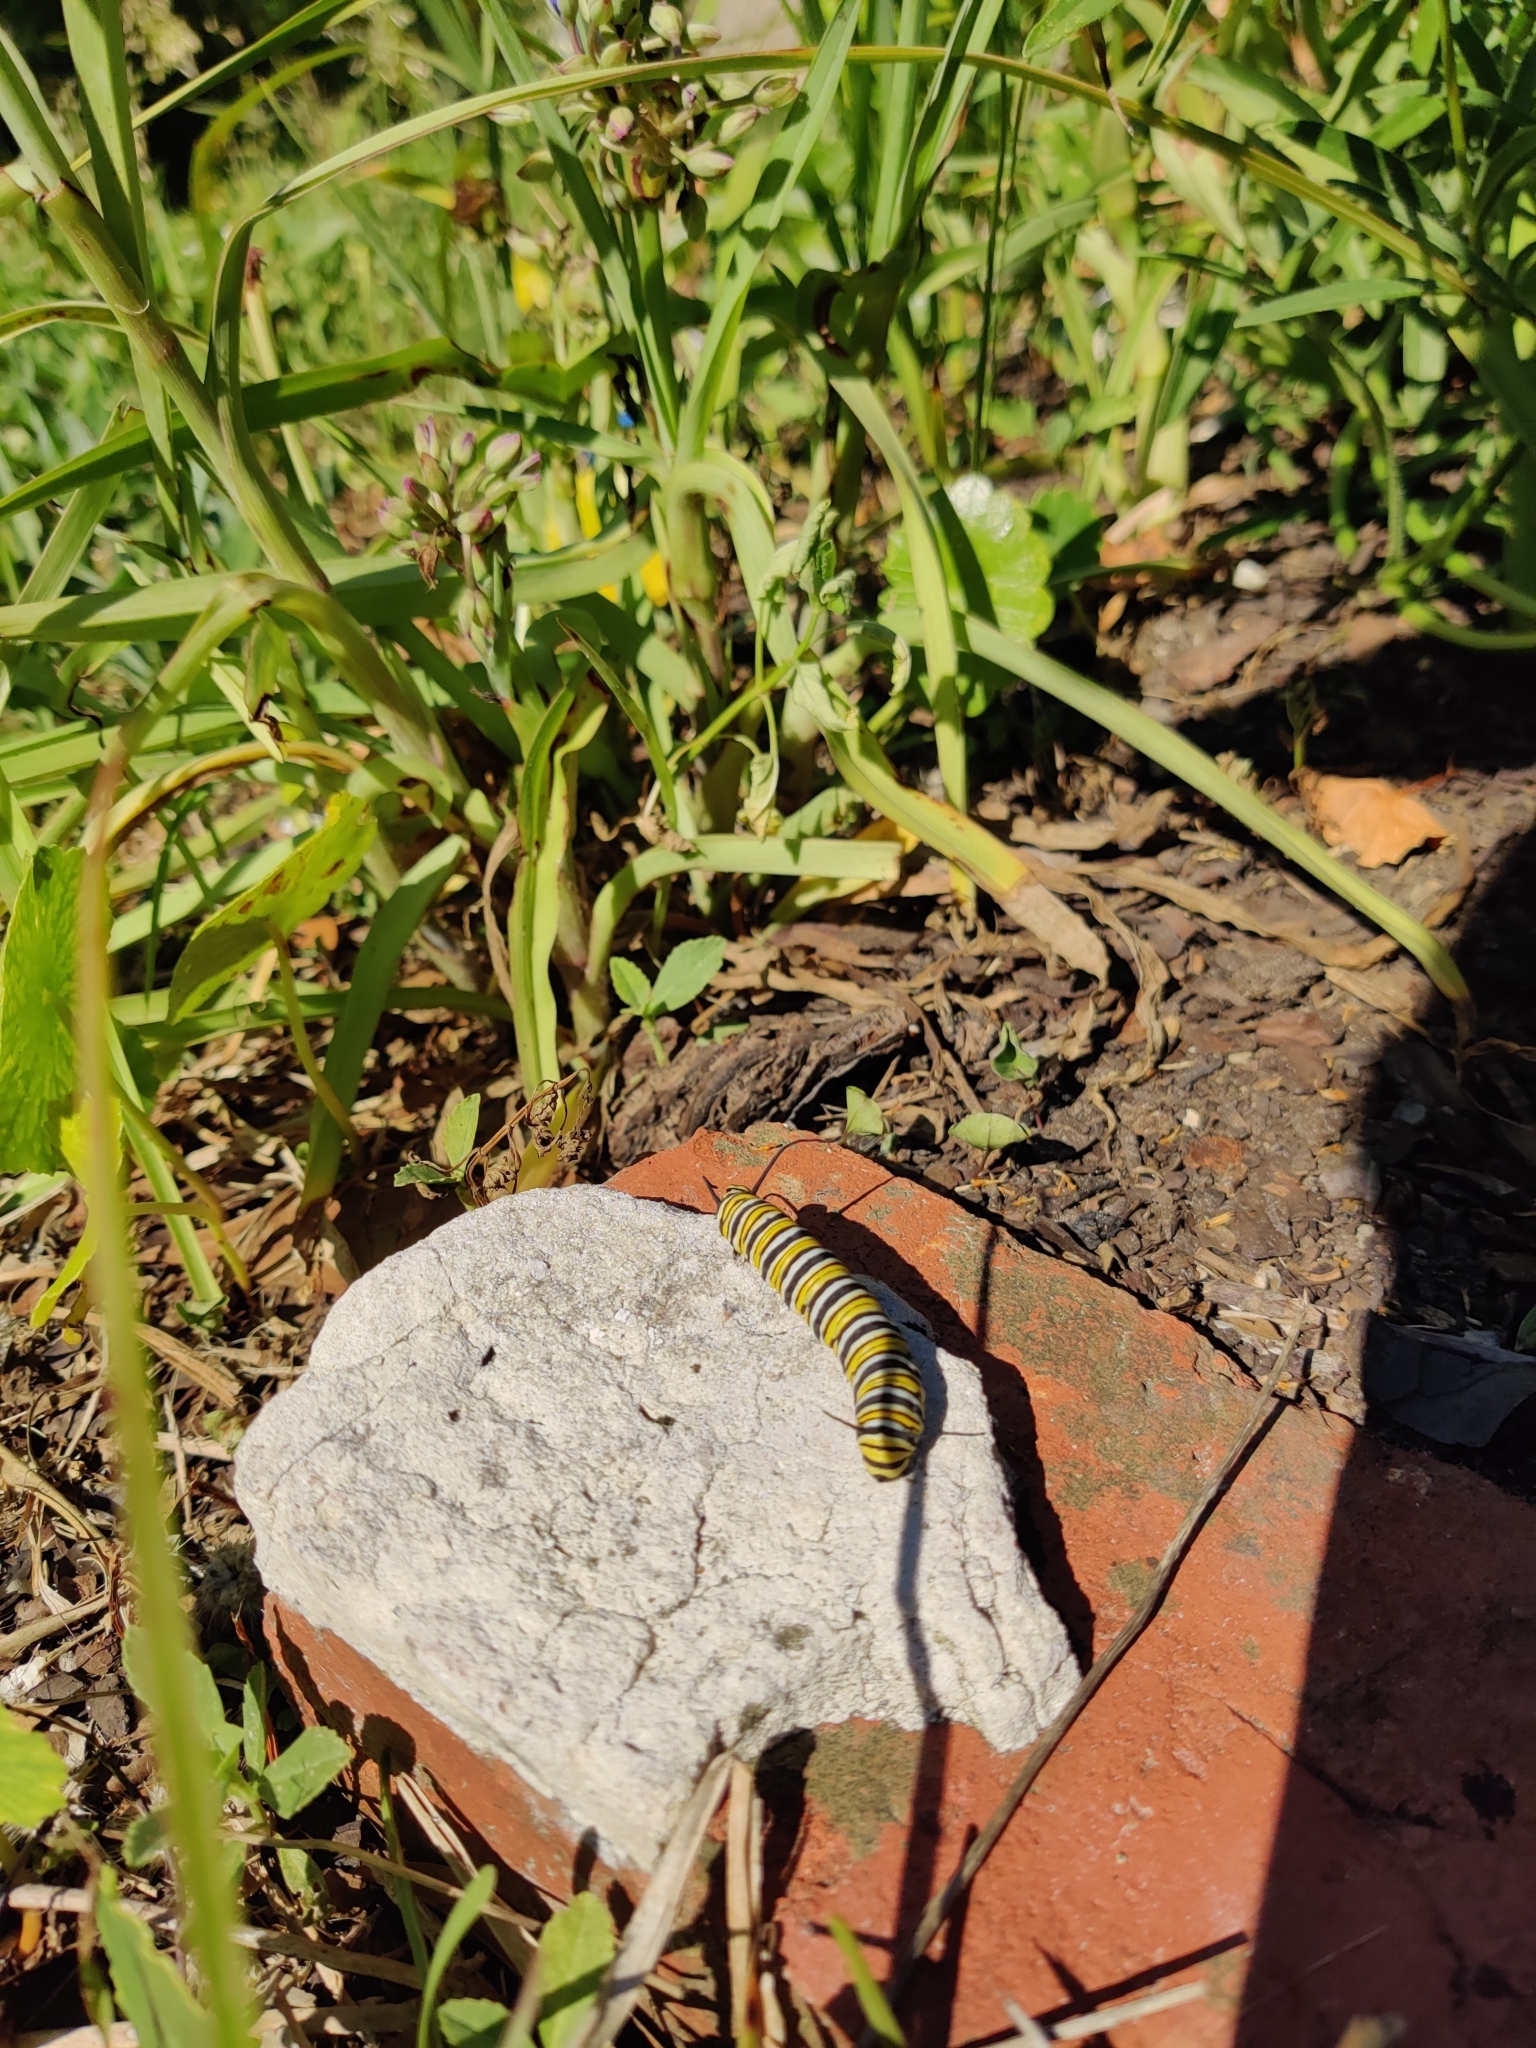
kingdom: Animalia
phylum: Arthropoda
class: Insecta
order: Lepidoptera
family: Nymphalidae
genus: Danaus
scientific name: Danaus plexippus
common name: Monarch
